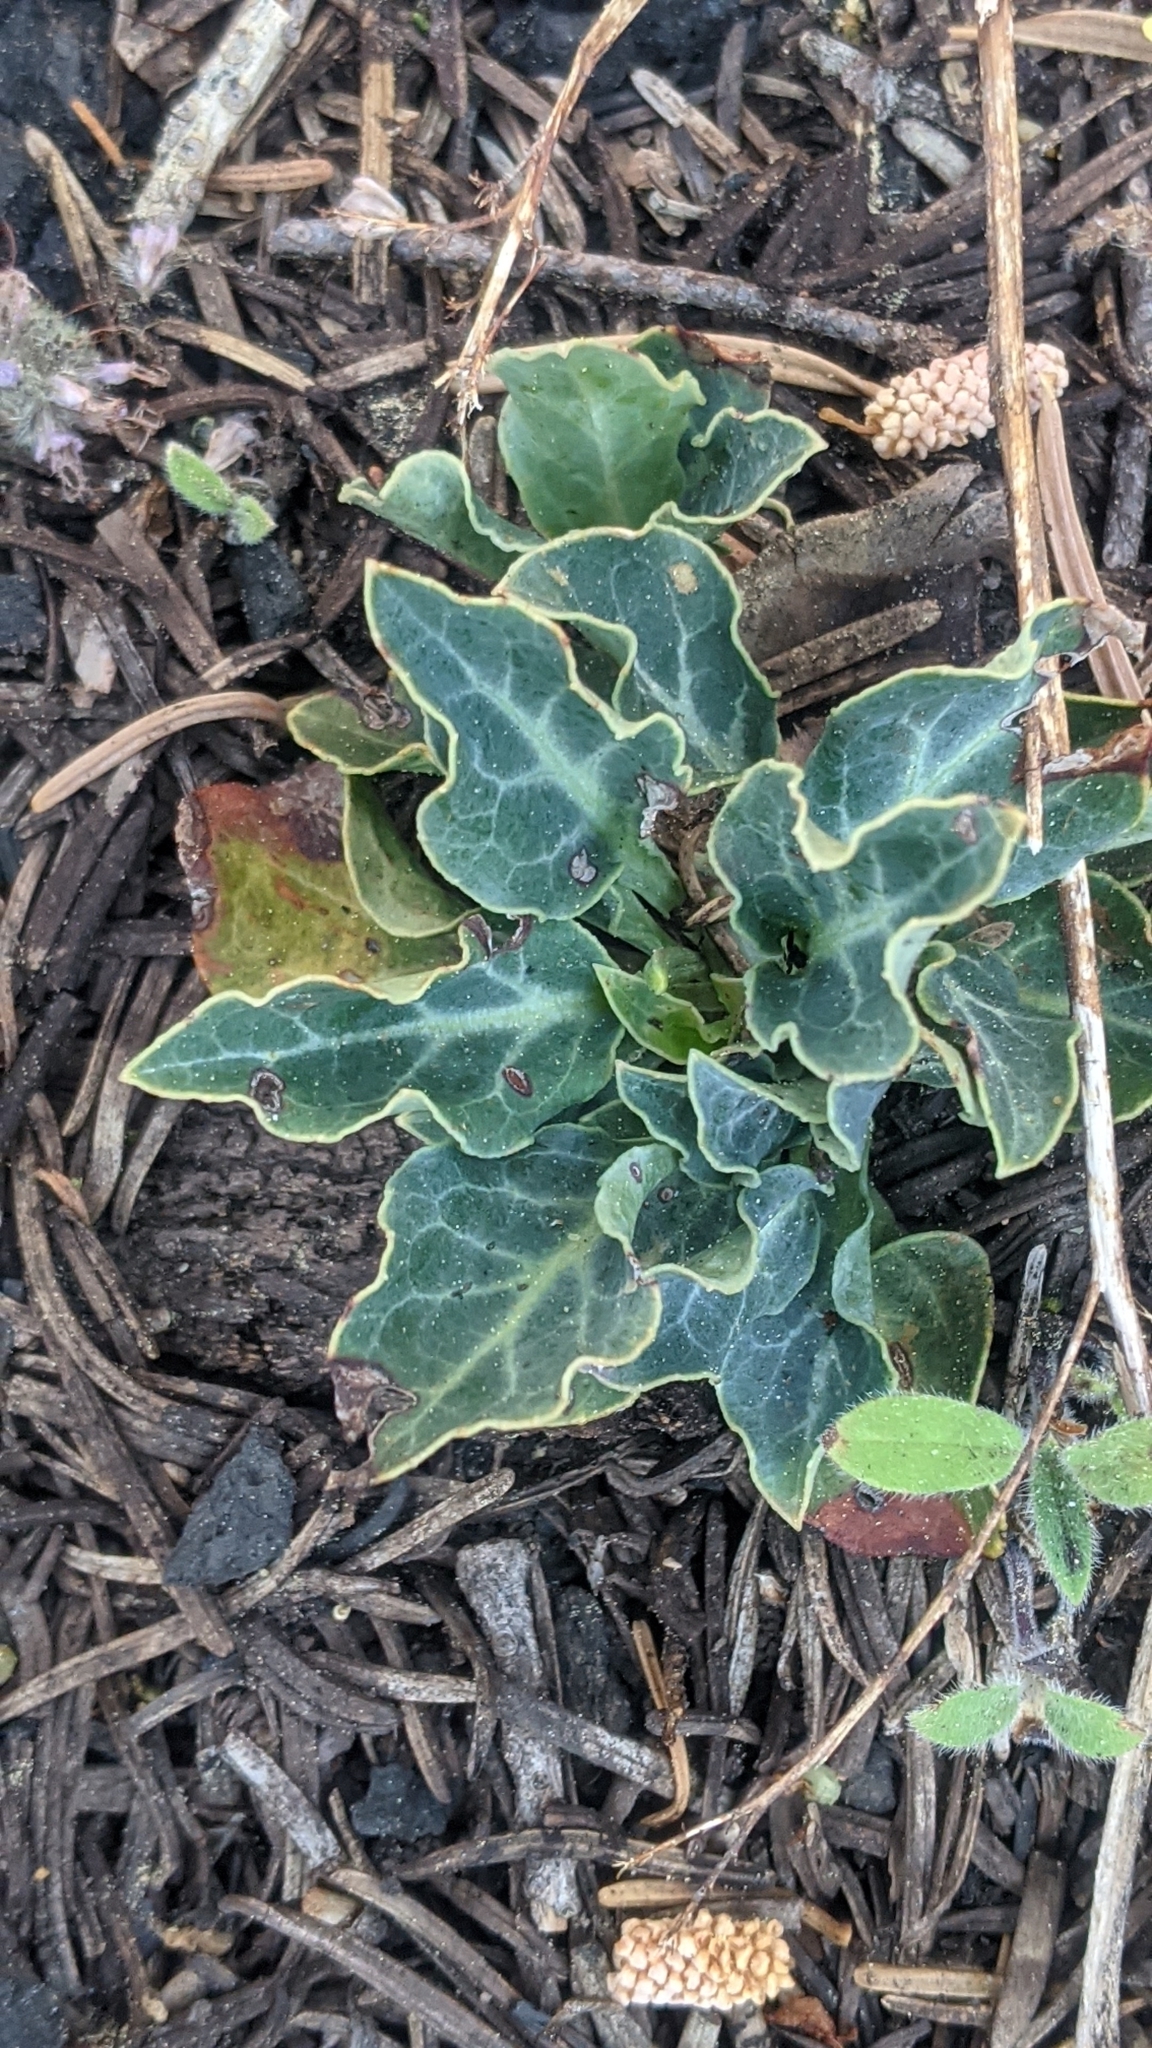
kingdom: Plantae
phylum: Tracheophyta
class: Magnoliopsida
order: Ericales
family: Ericaceae
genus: Pyrola
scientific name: Pyrola dentata
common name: Tooth-leaved wintergreen
